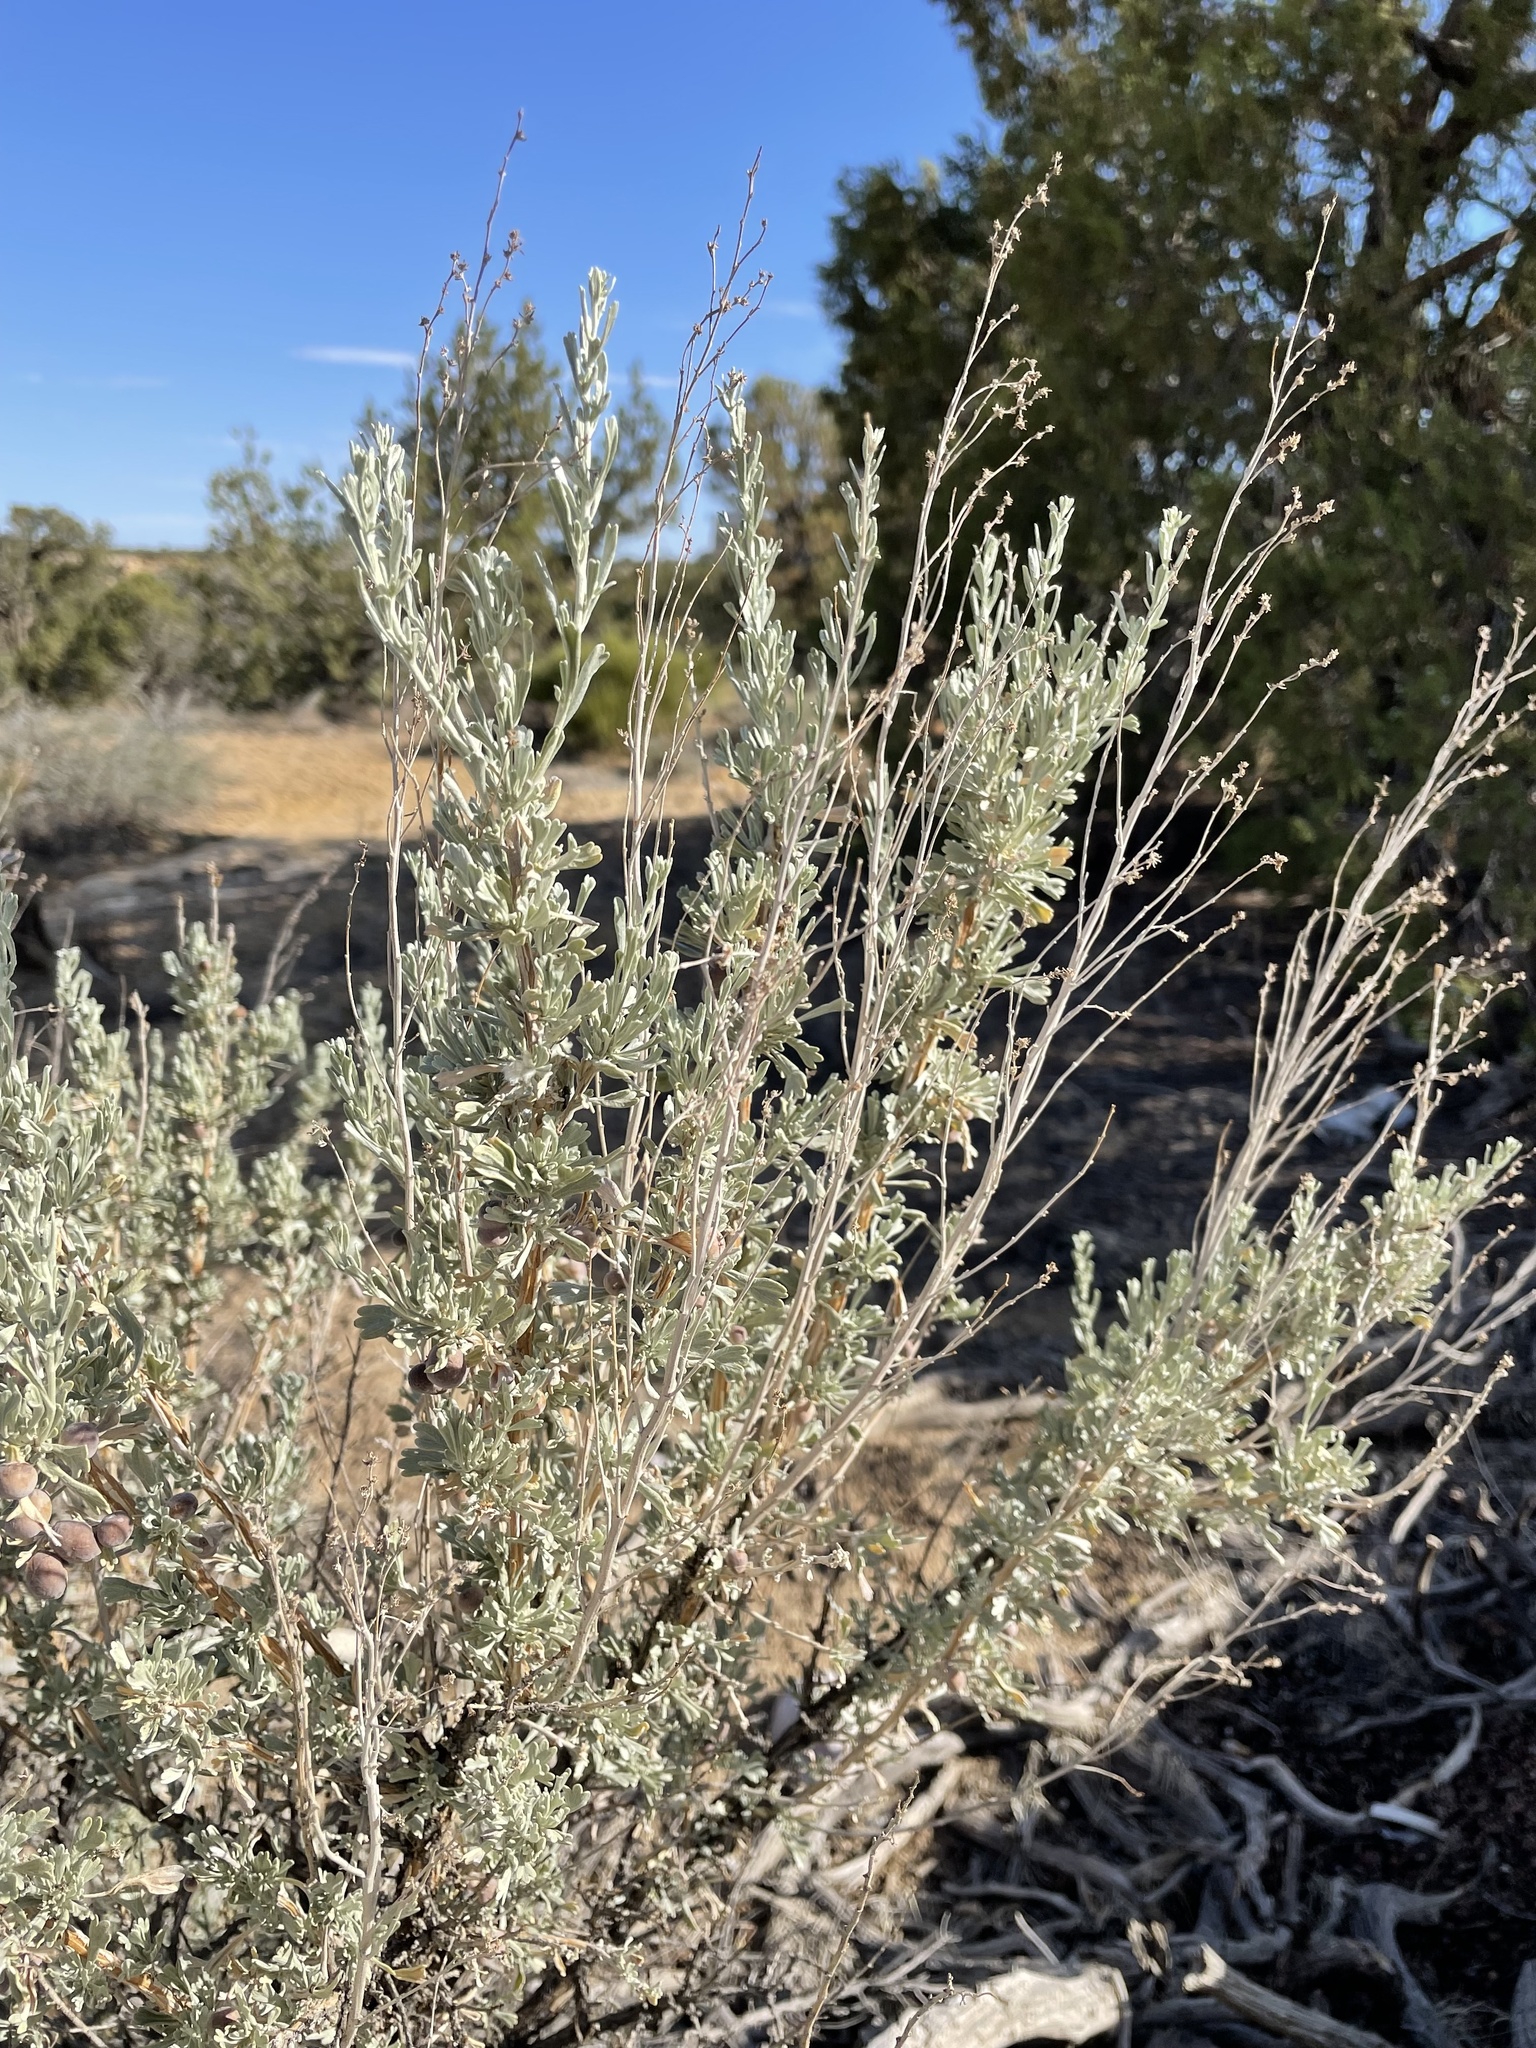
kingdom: Plantae
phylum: Tracheophyta
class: Magnoliopsida
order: Asterales
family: Asteraceae
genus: Artemisia
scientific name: Artemisia tridentata
